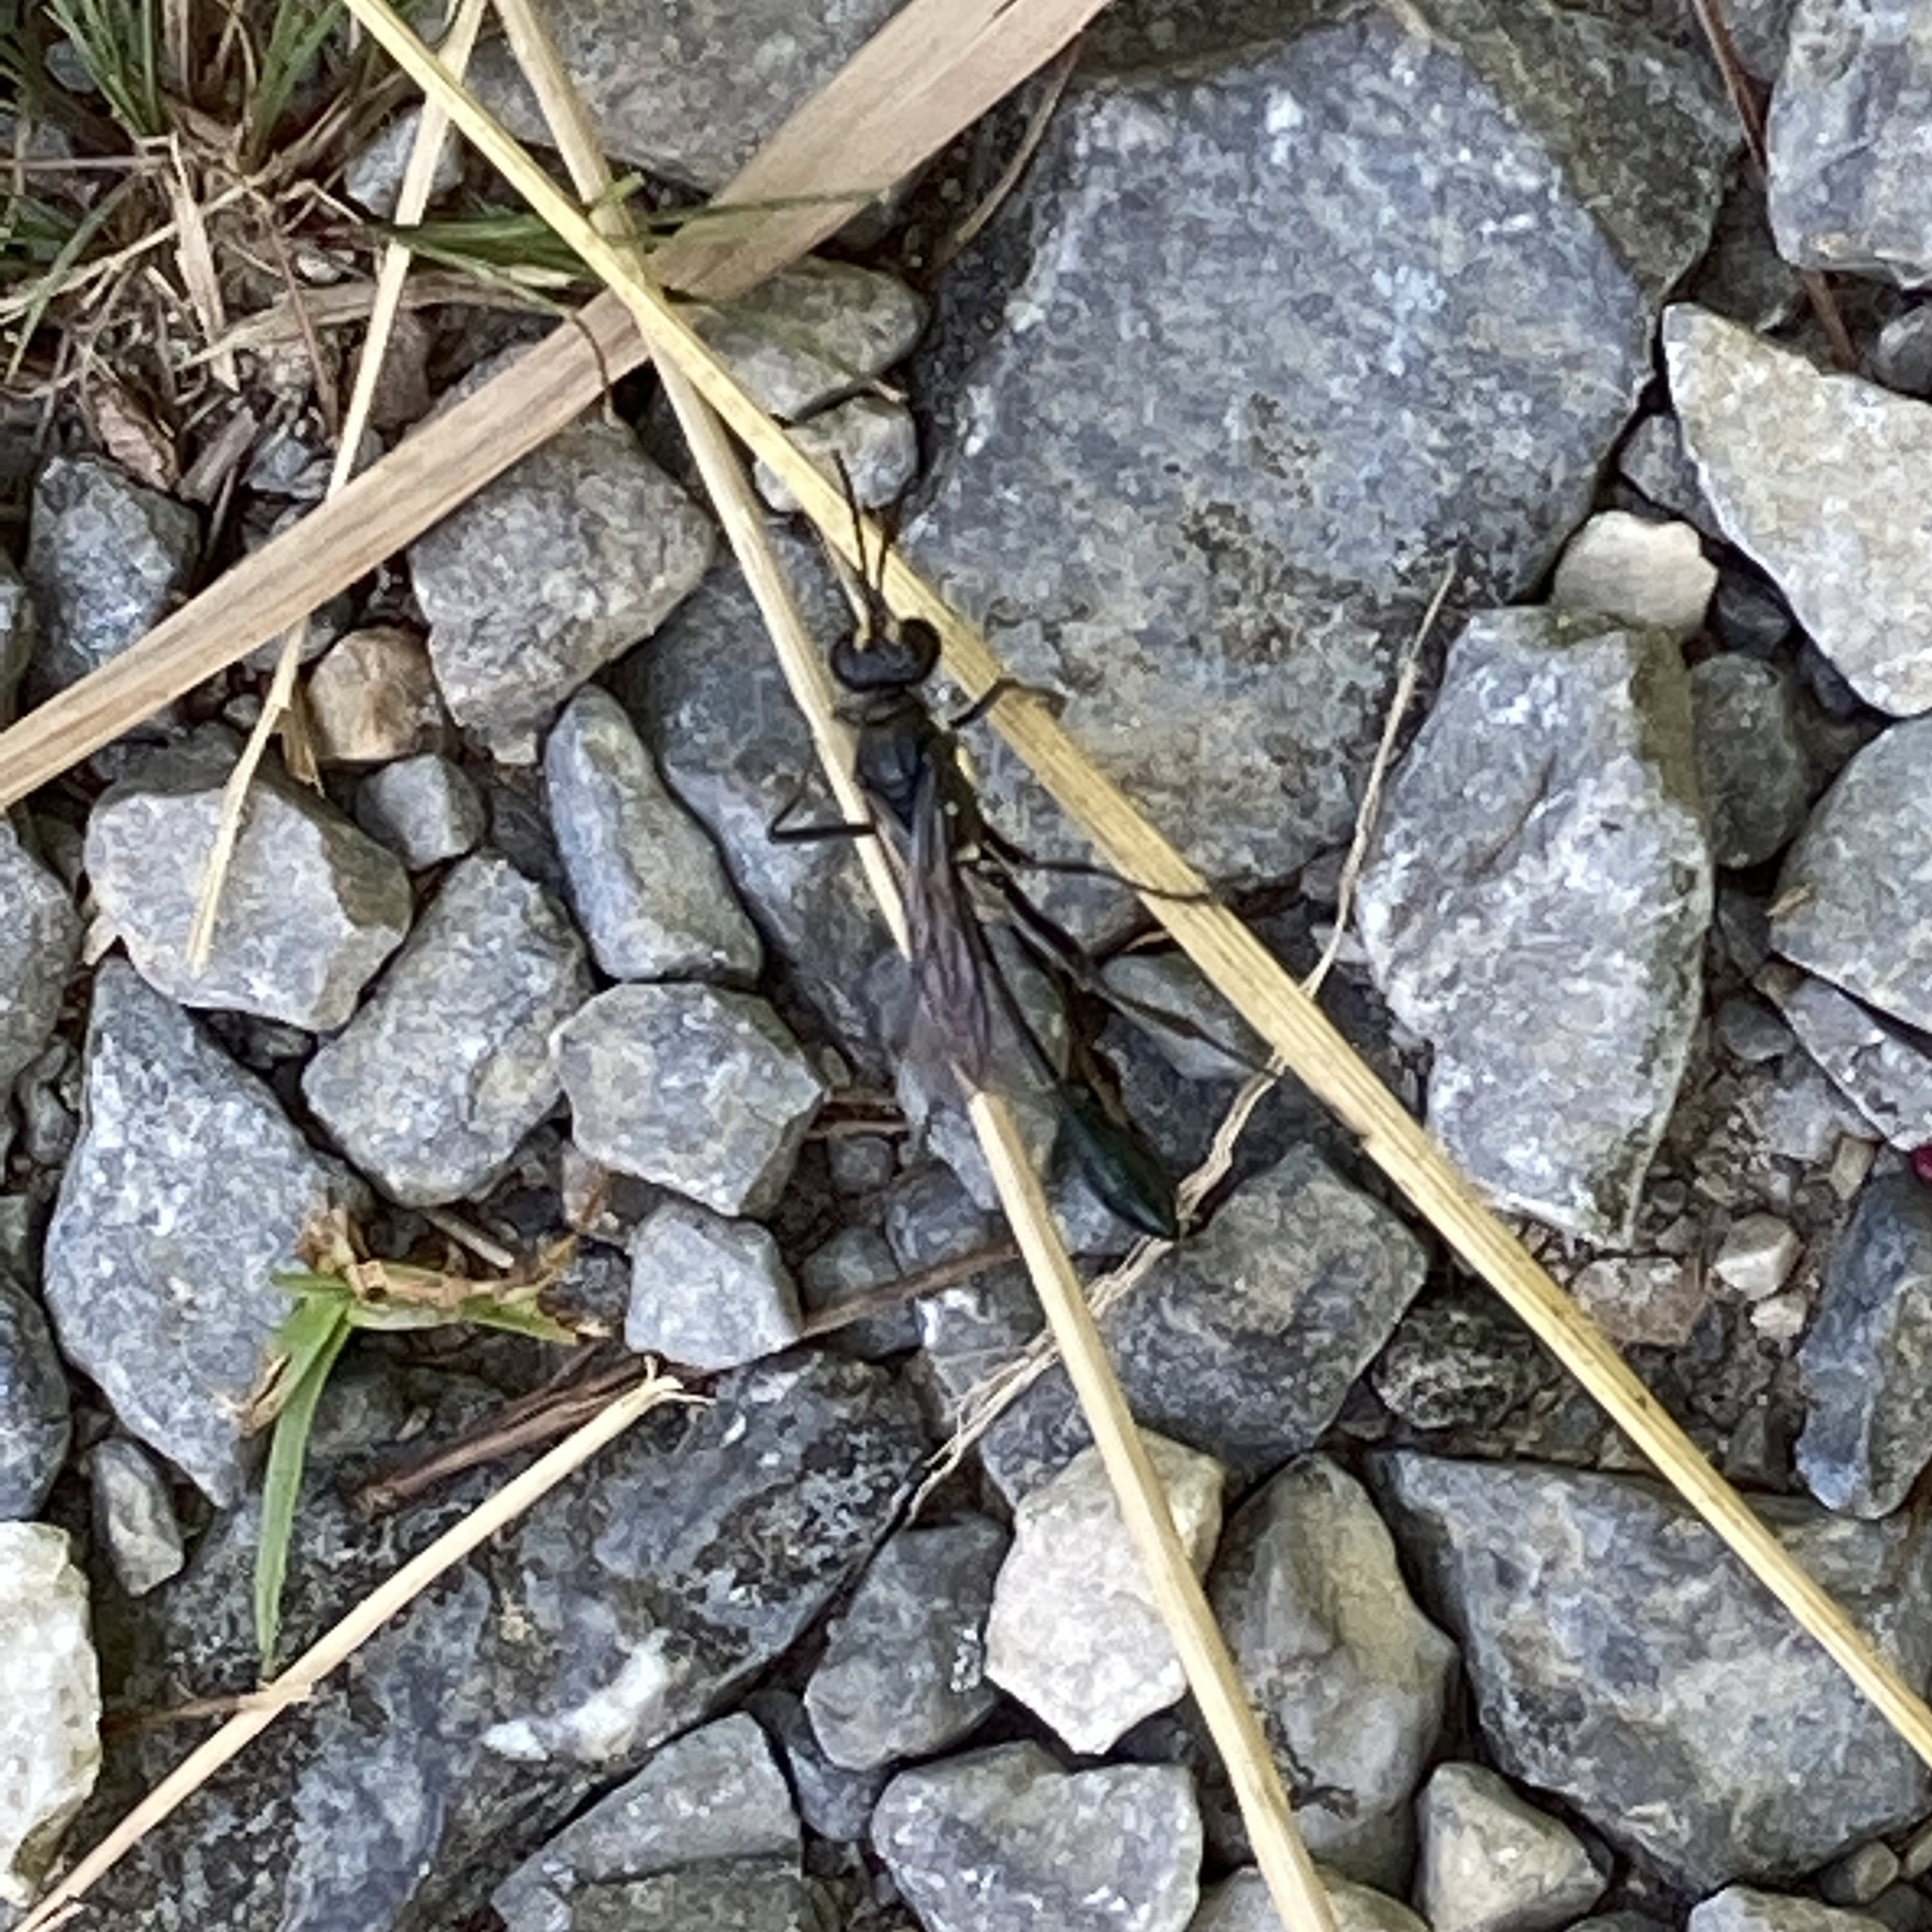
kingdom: Animalia
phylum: Arthropoda
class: Insecta
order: Hymenoptera
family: Sphecidae
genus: Eremnophila
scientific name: Eremnophila aureonotata
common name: Gold-marked thread-waisted wasp
